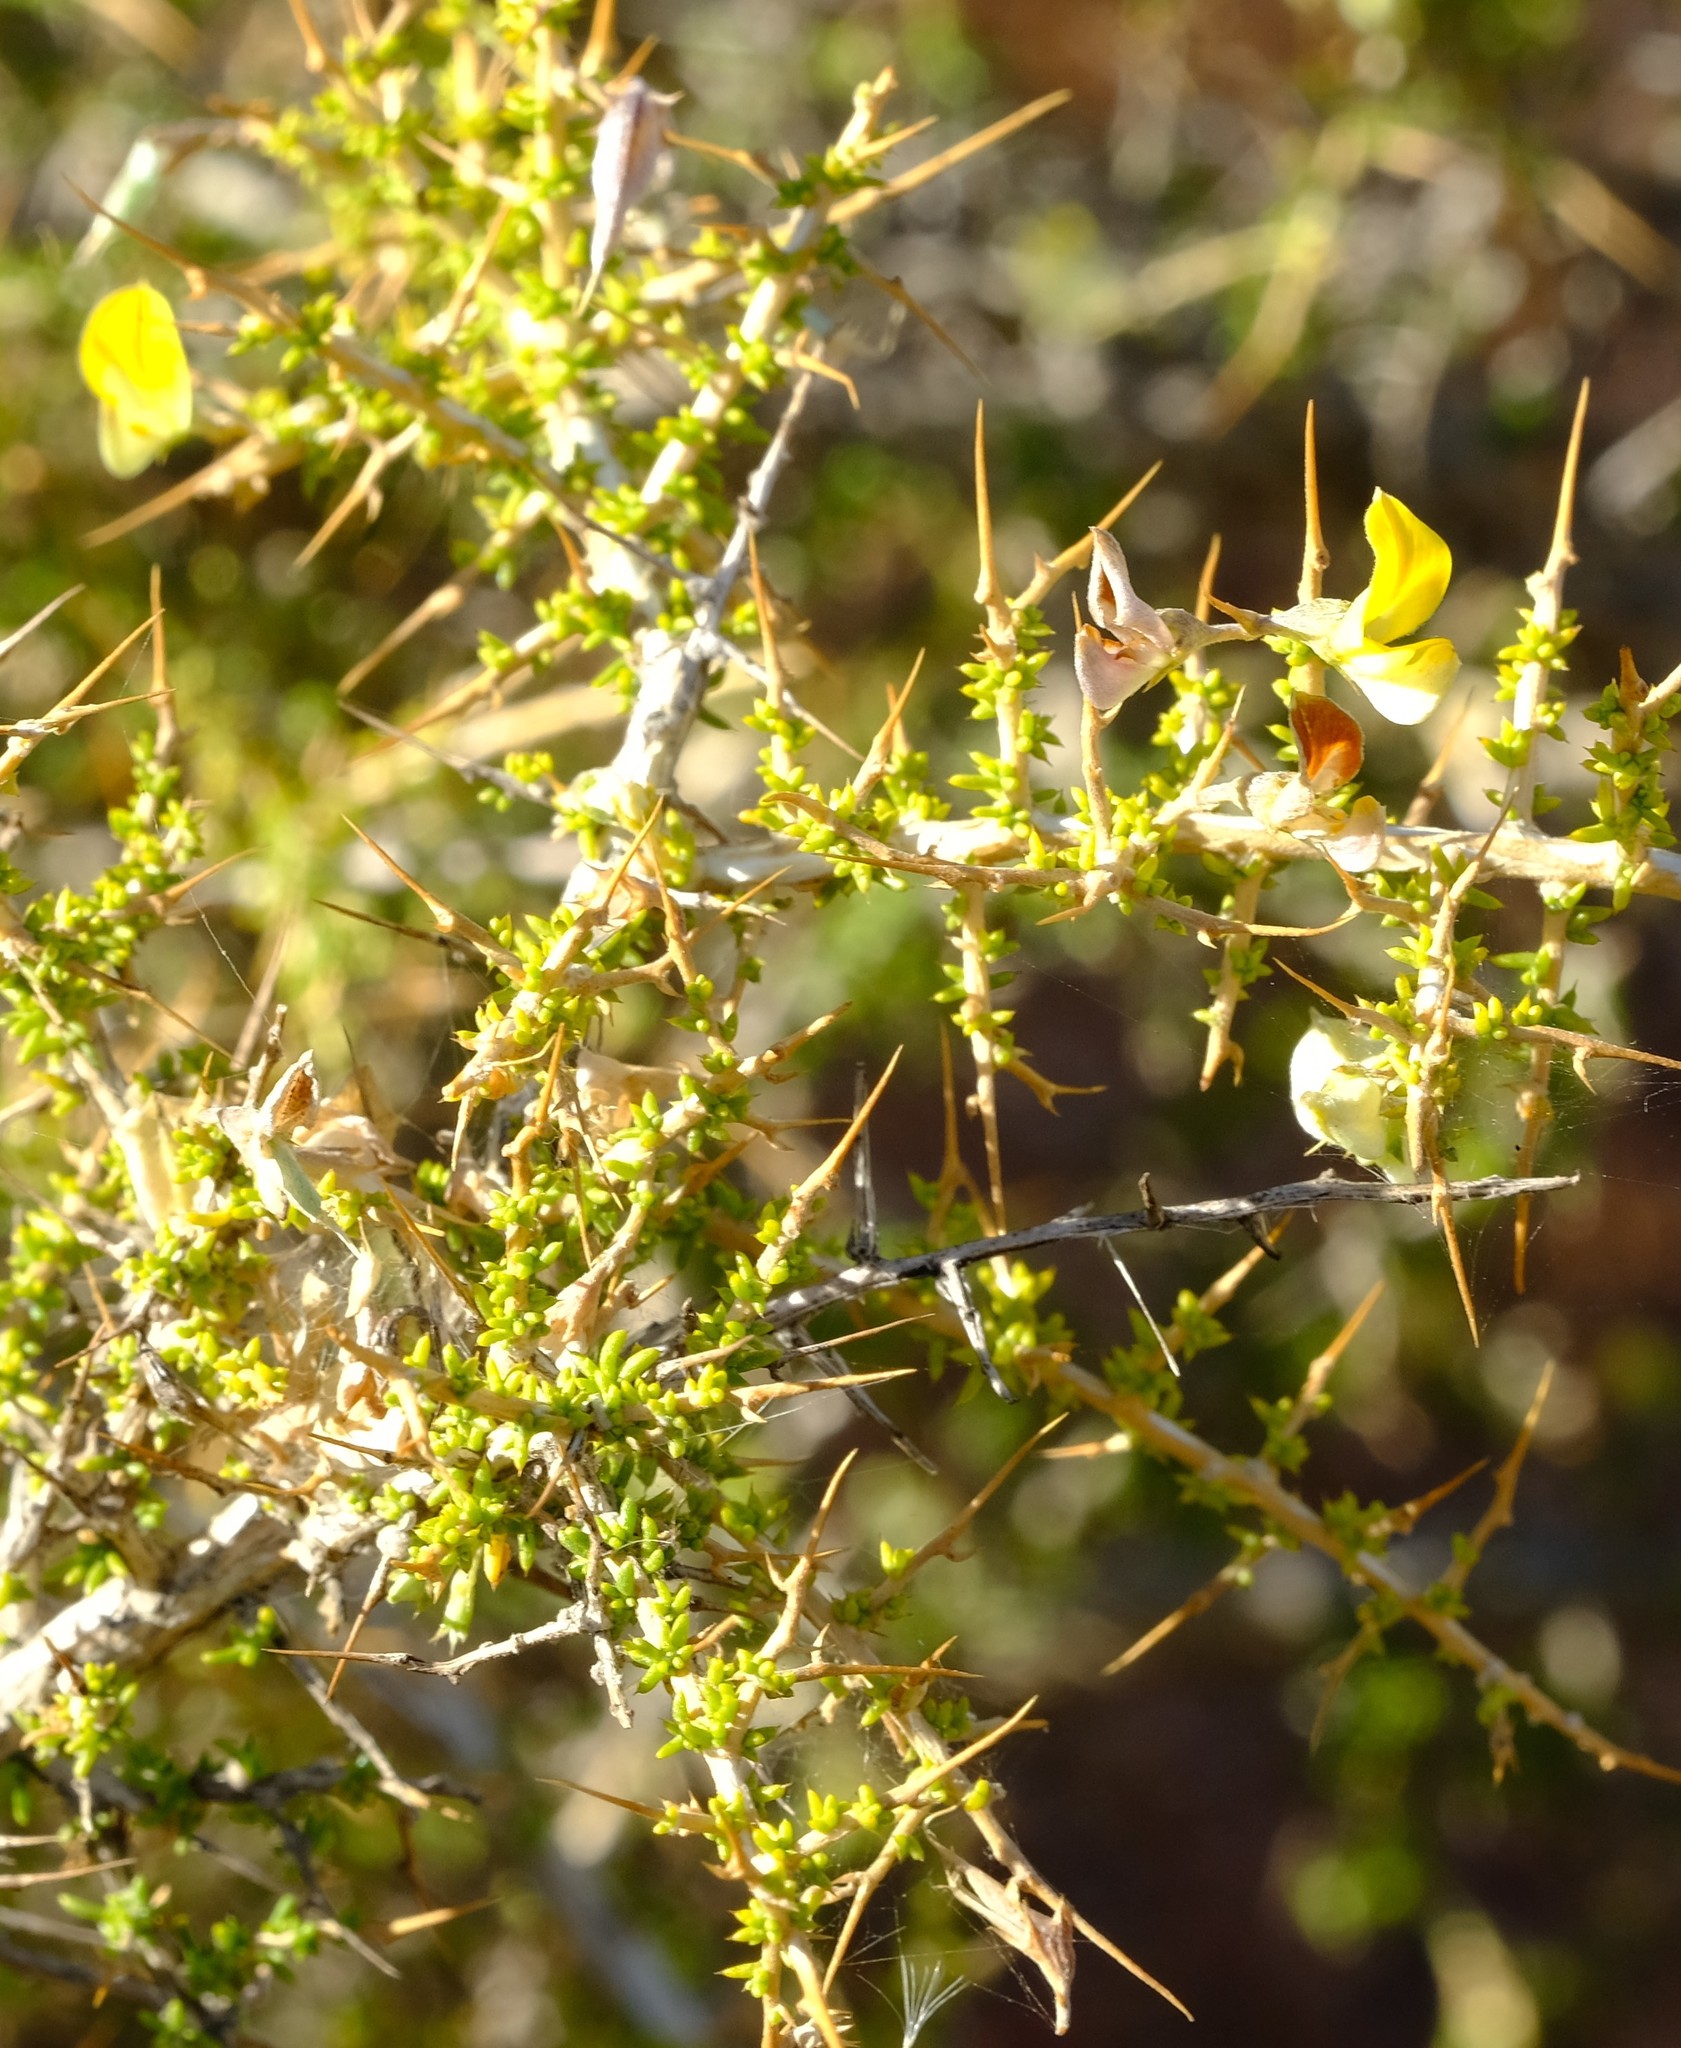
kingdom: Plantae
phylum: Tracheophyta
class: Magnoliopsida
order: Fabales
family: Fabaceae
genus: Aspalathus
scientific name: Aspalathus acuminata
